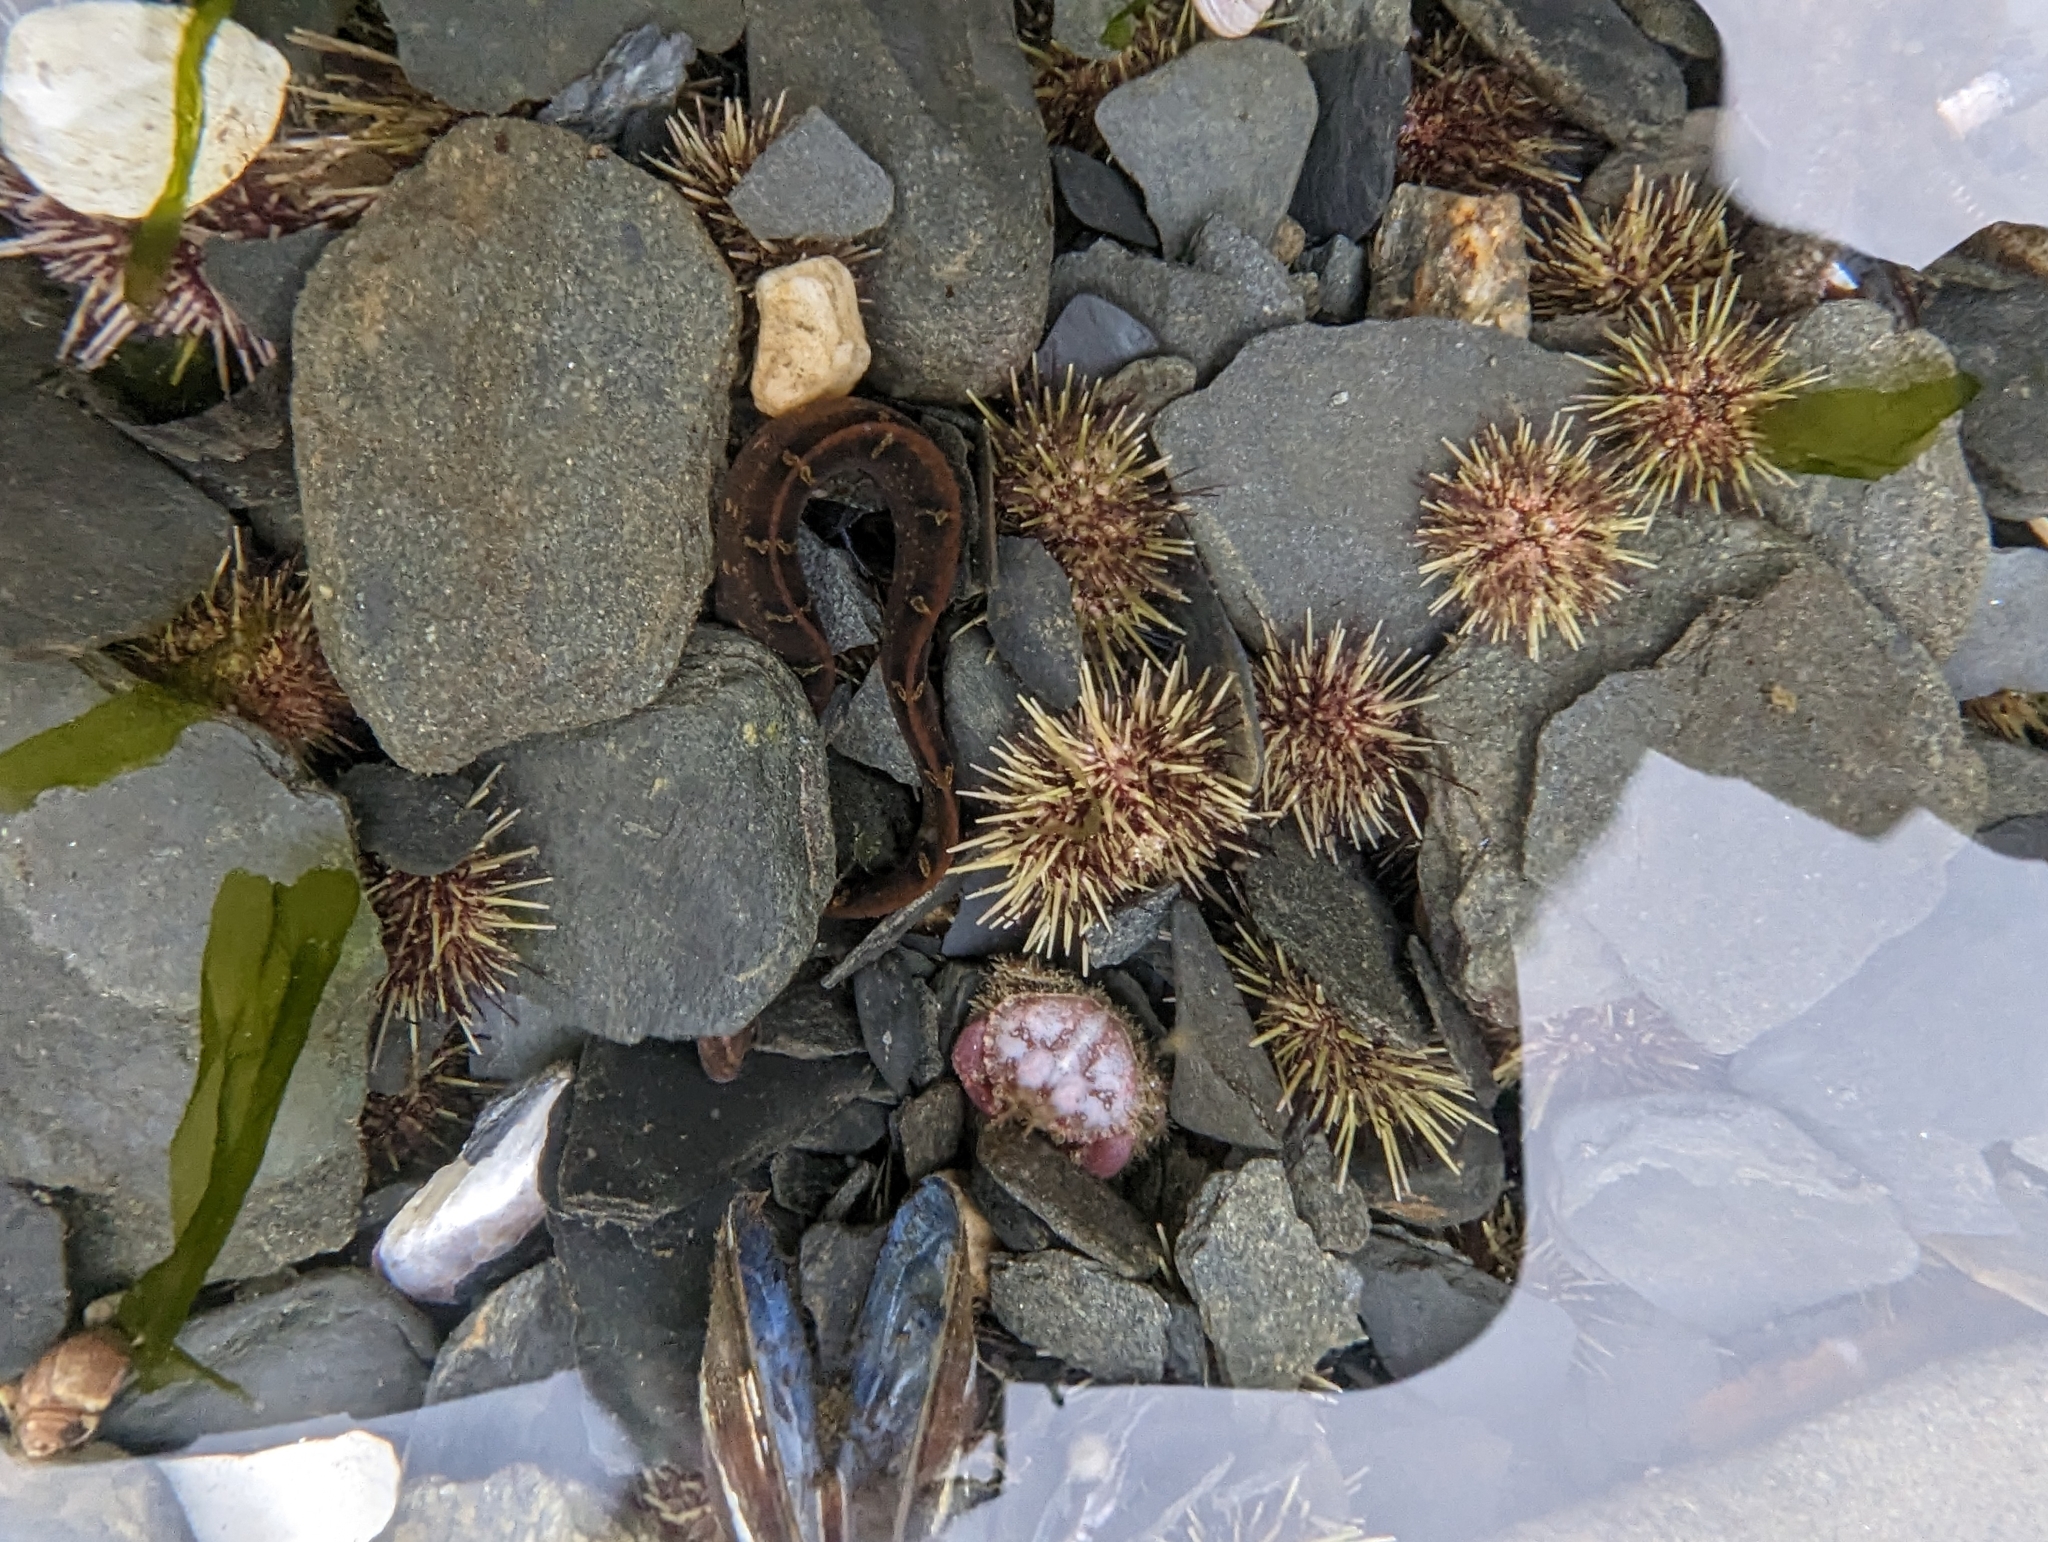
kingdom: Animalia
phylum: Echinodermata
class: Echinoidea
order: Camarodonta
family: Strongylocentrotidae
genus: Strongylocentrotus
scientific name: Strongylocentrotus droebachiensis
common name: Northern sea urchin
